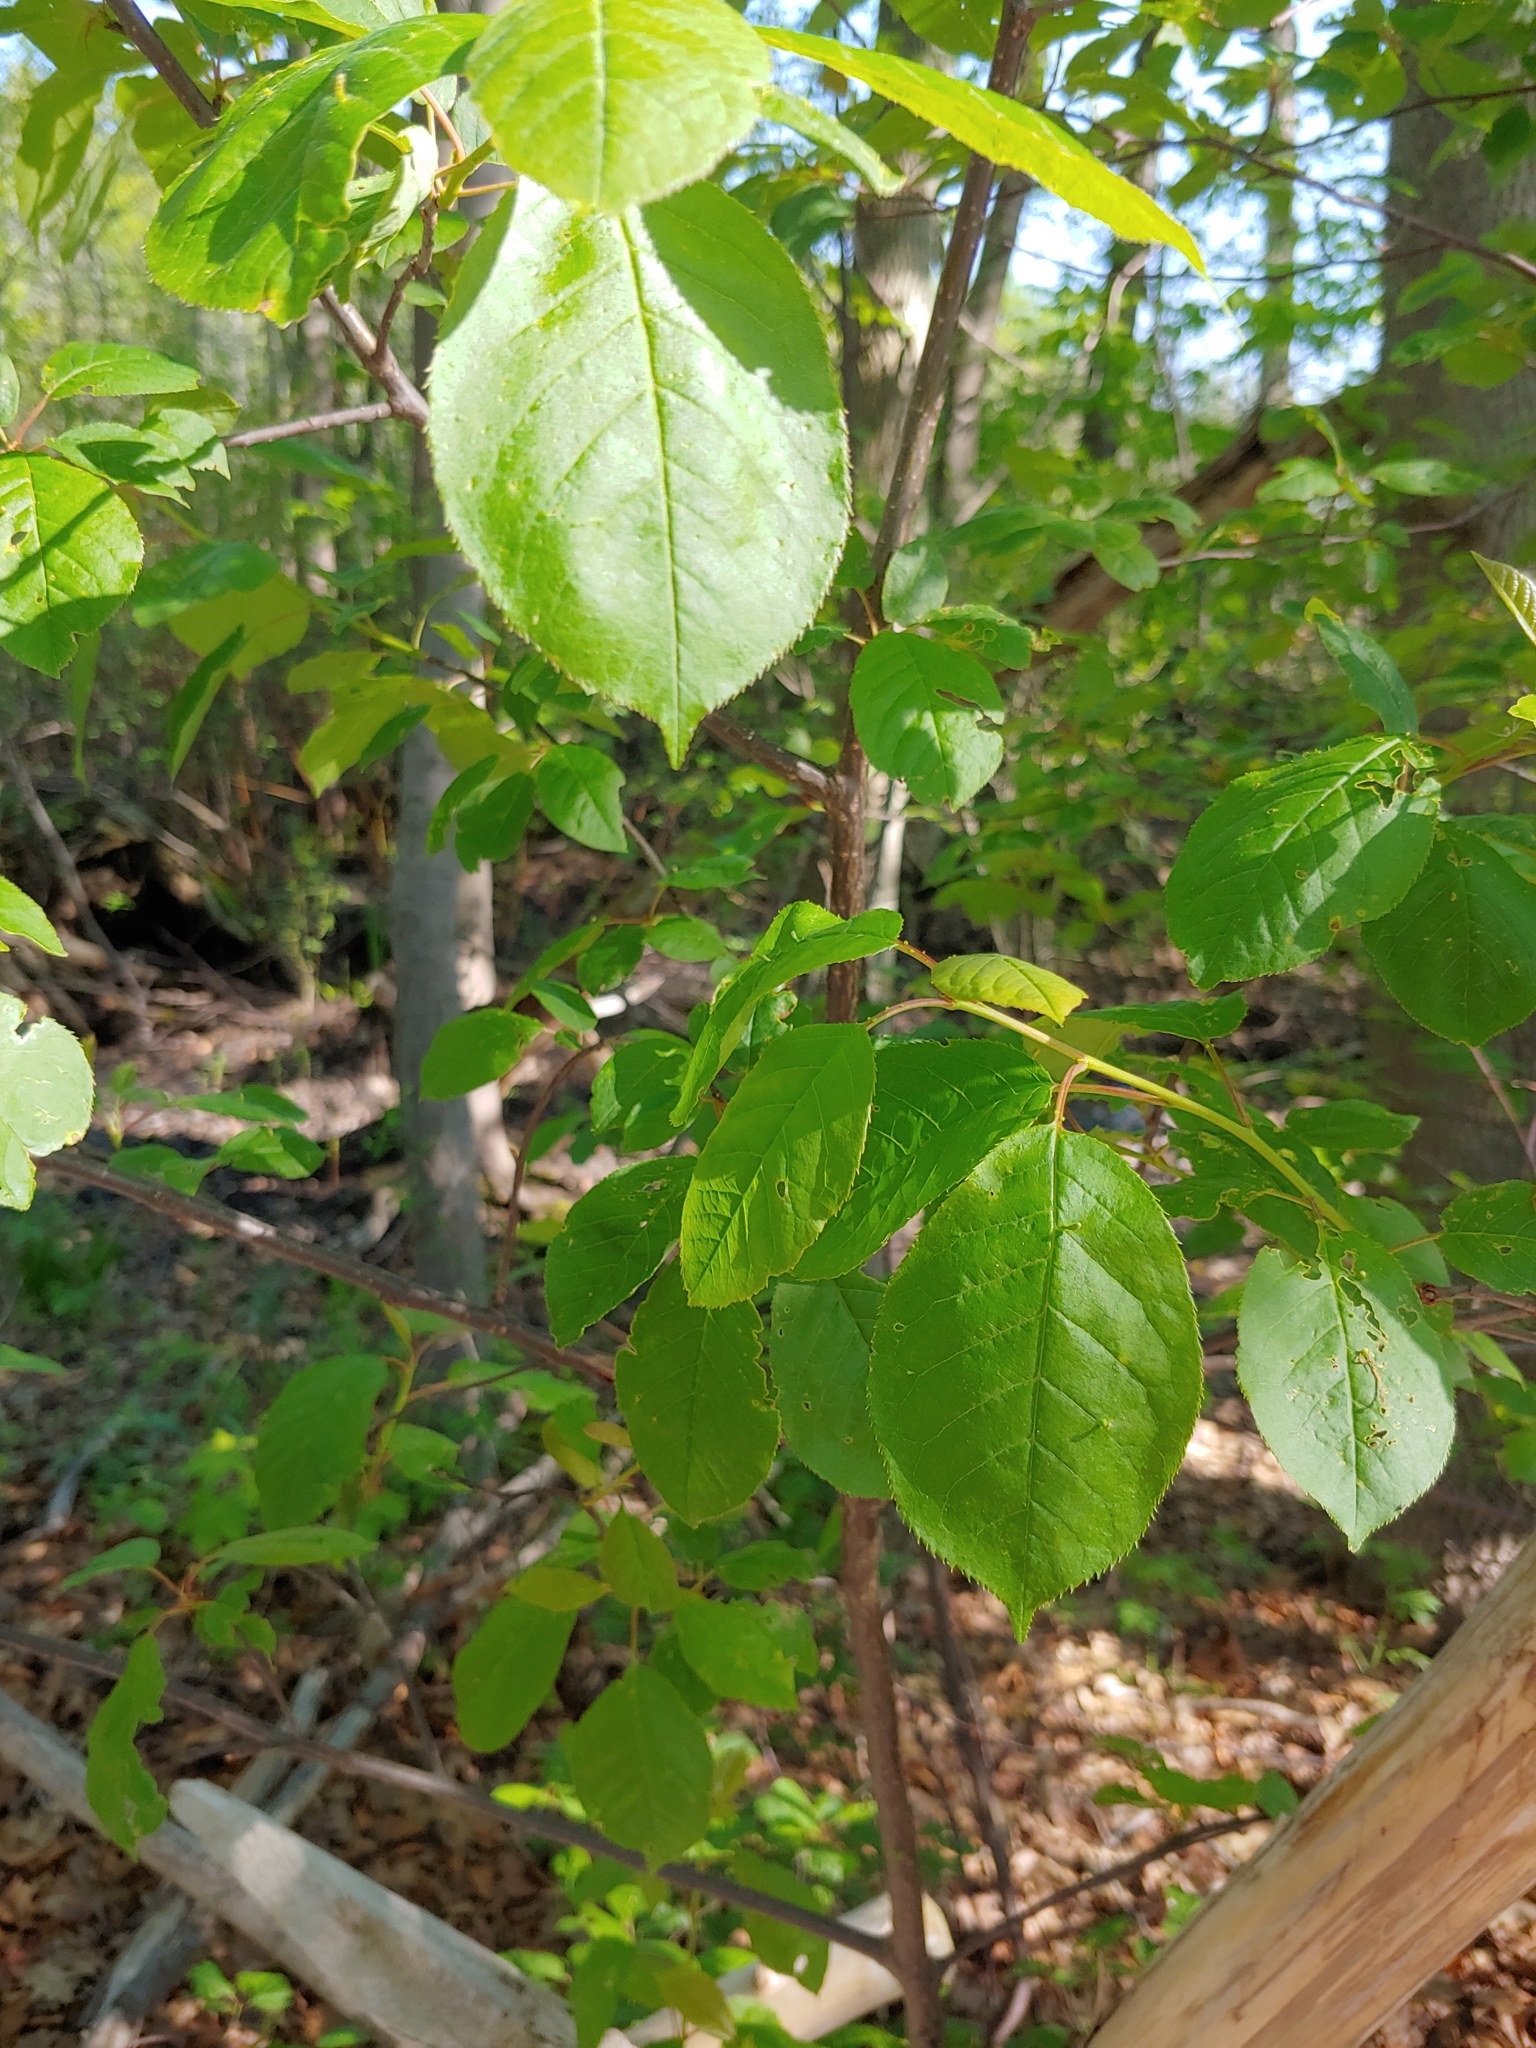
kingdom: Plantae
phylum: Tracheophyta
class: Magnoliopsida
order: Rosales
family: Rosaceae
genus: Prunus
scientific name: Prunus virginiana
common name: Chokecherry
